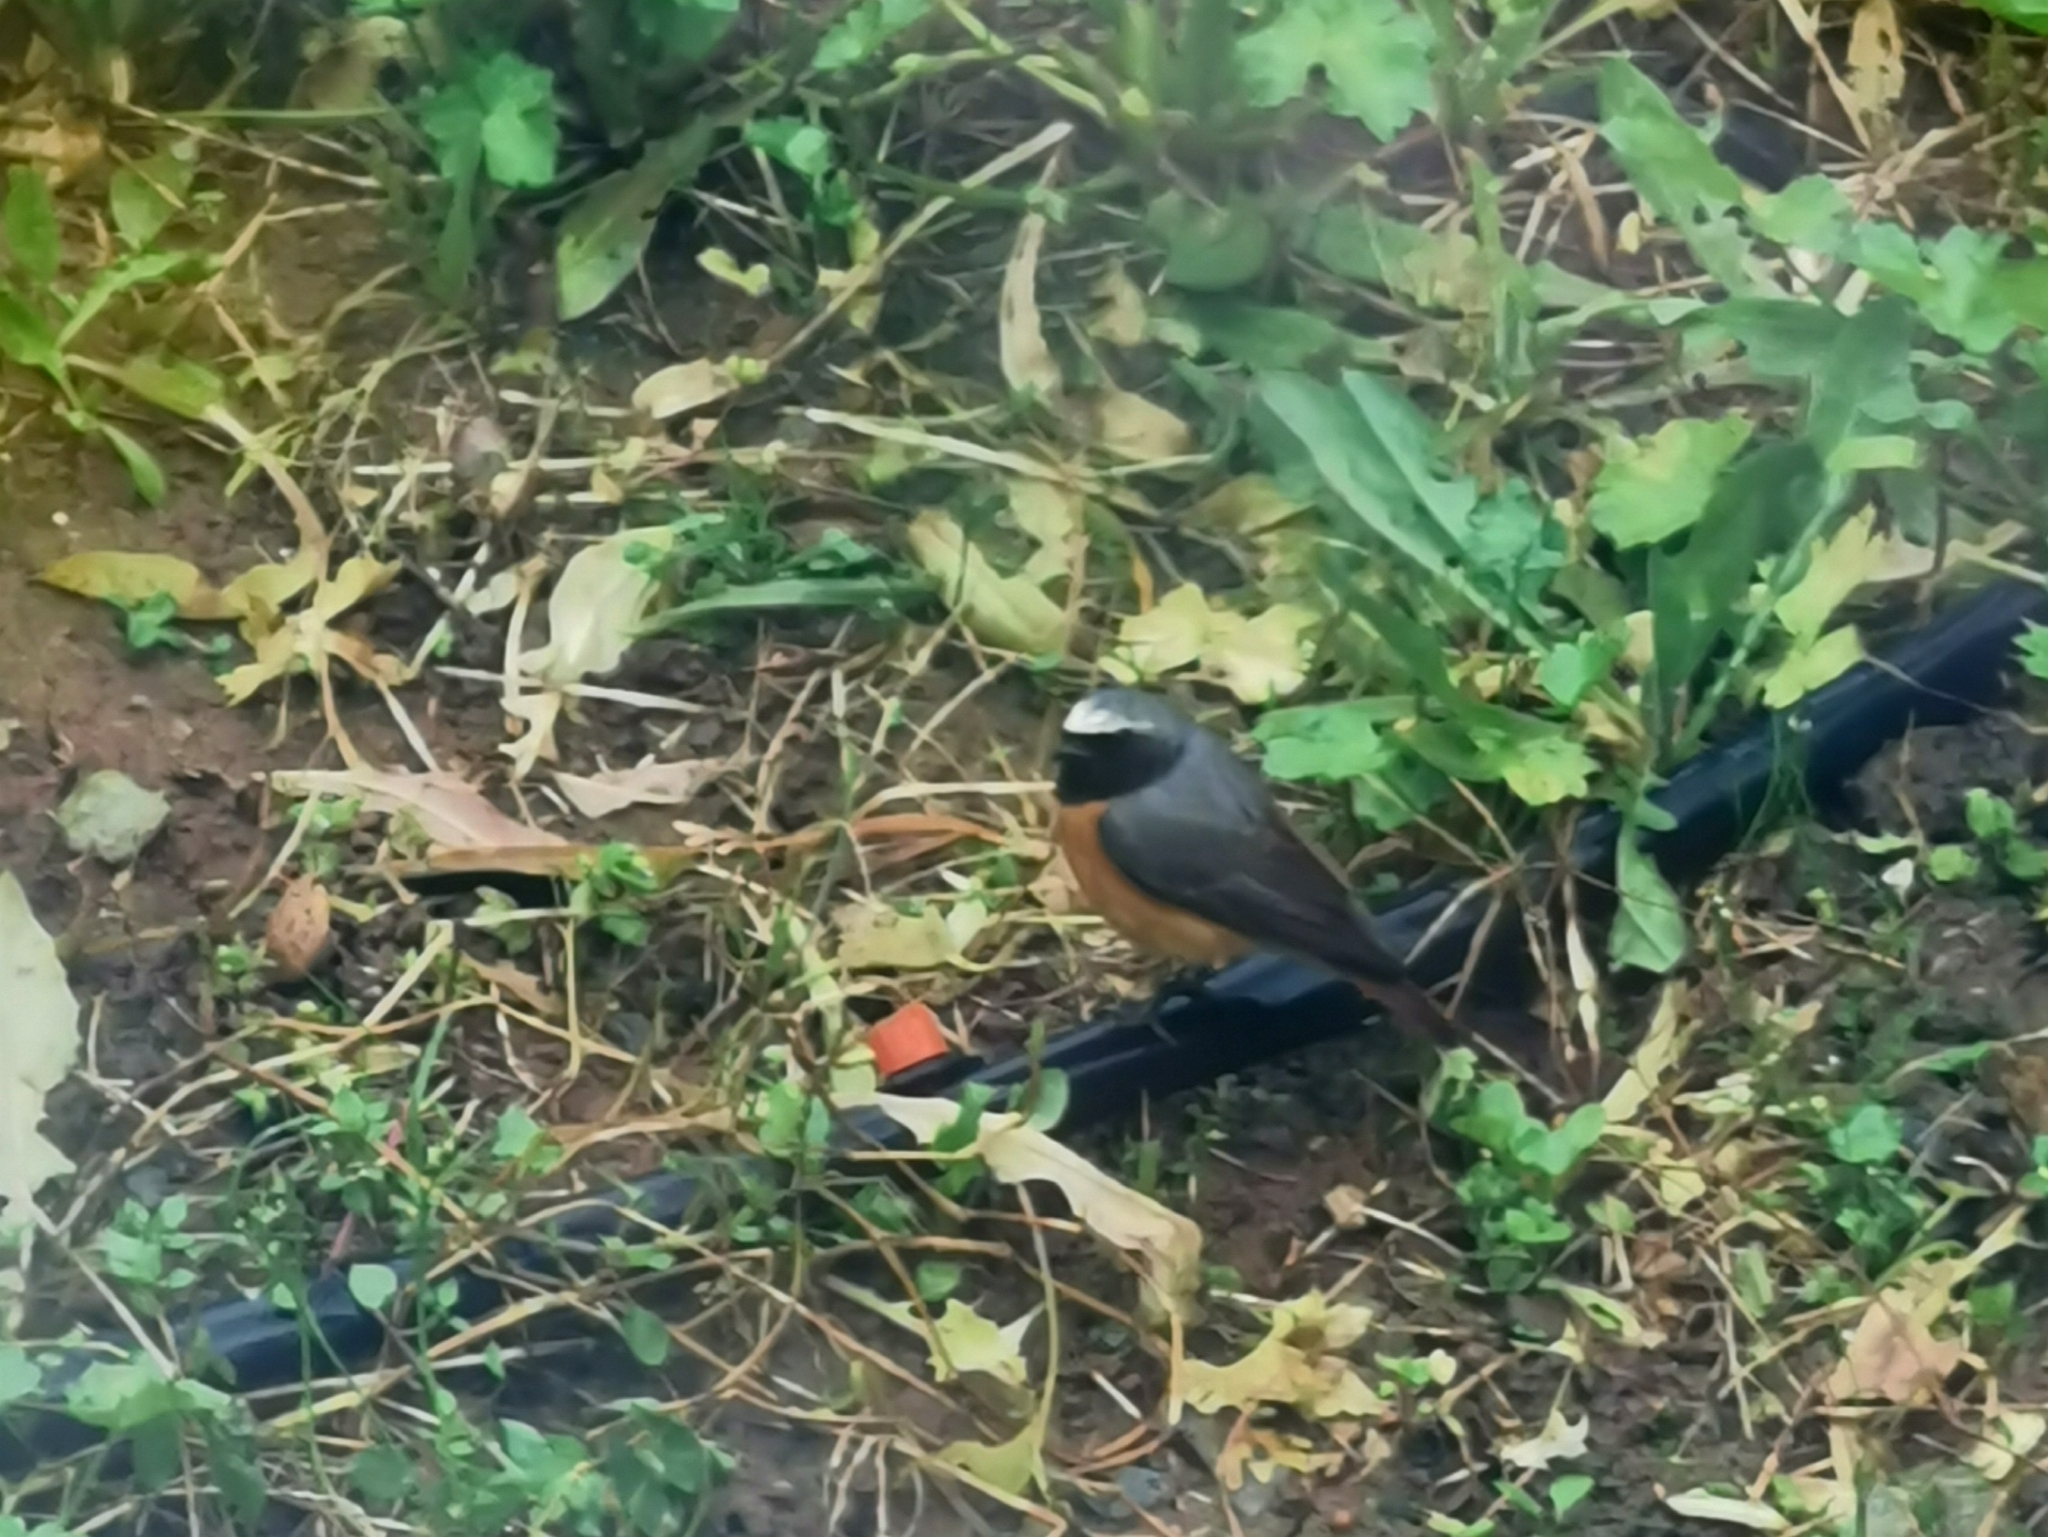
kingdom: Animalia
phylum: Chordata
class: Aves
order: Passeriformes
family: Muscicapidae
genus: Phoenicurus
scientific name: Phoenicurus phoenicurus
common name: Common redstart
